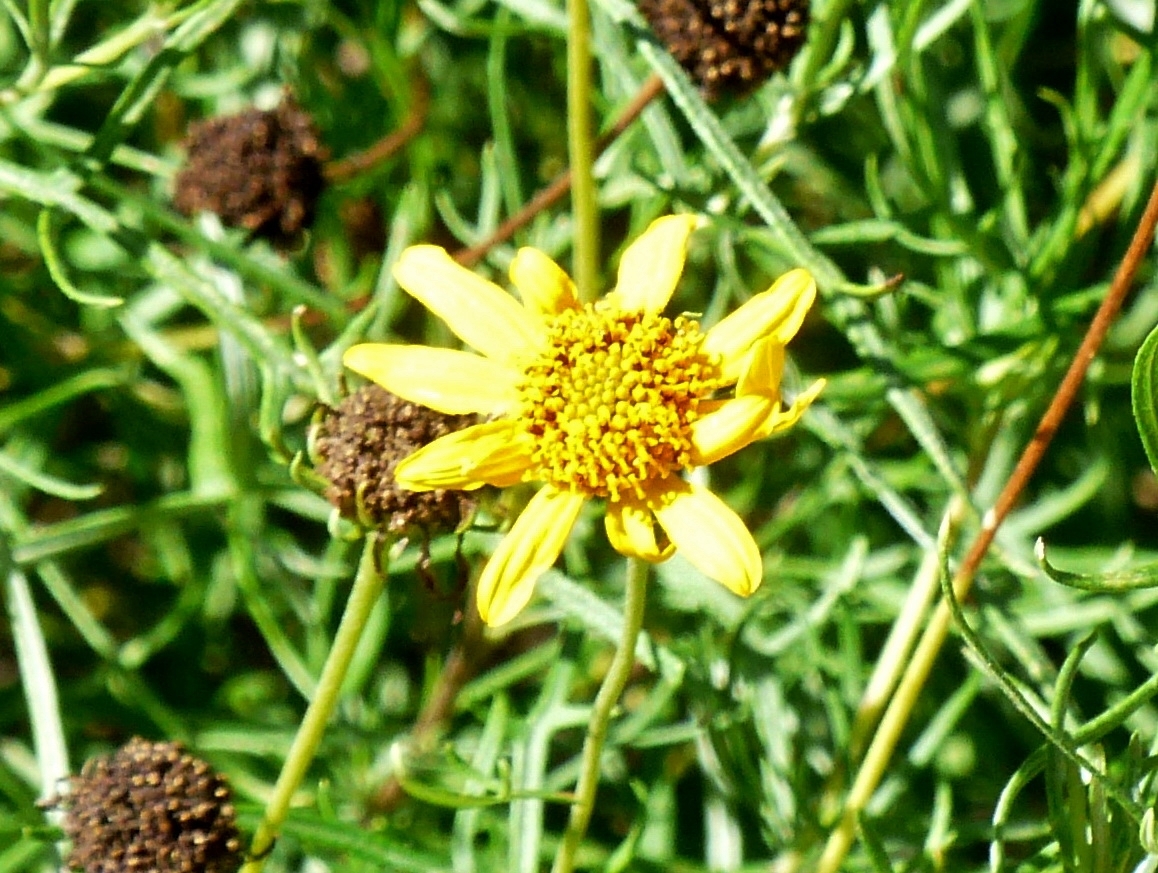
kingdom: Plantae
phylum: Tracheophyta
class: Magnoliopsida
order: Asterales
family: Asteraceae
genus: Sidneya
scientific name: Sidneya tenuifolia
